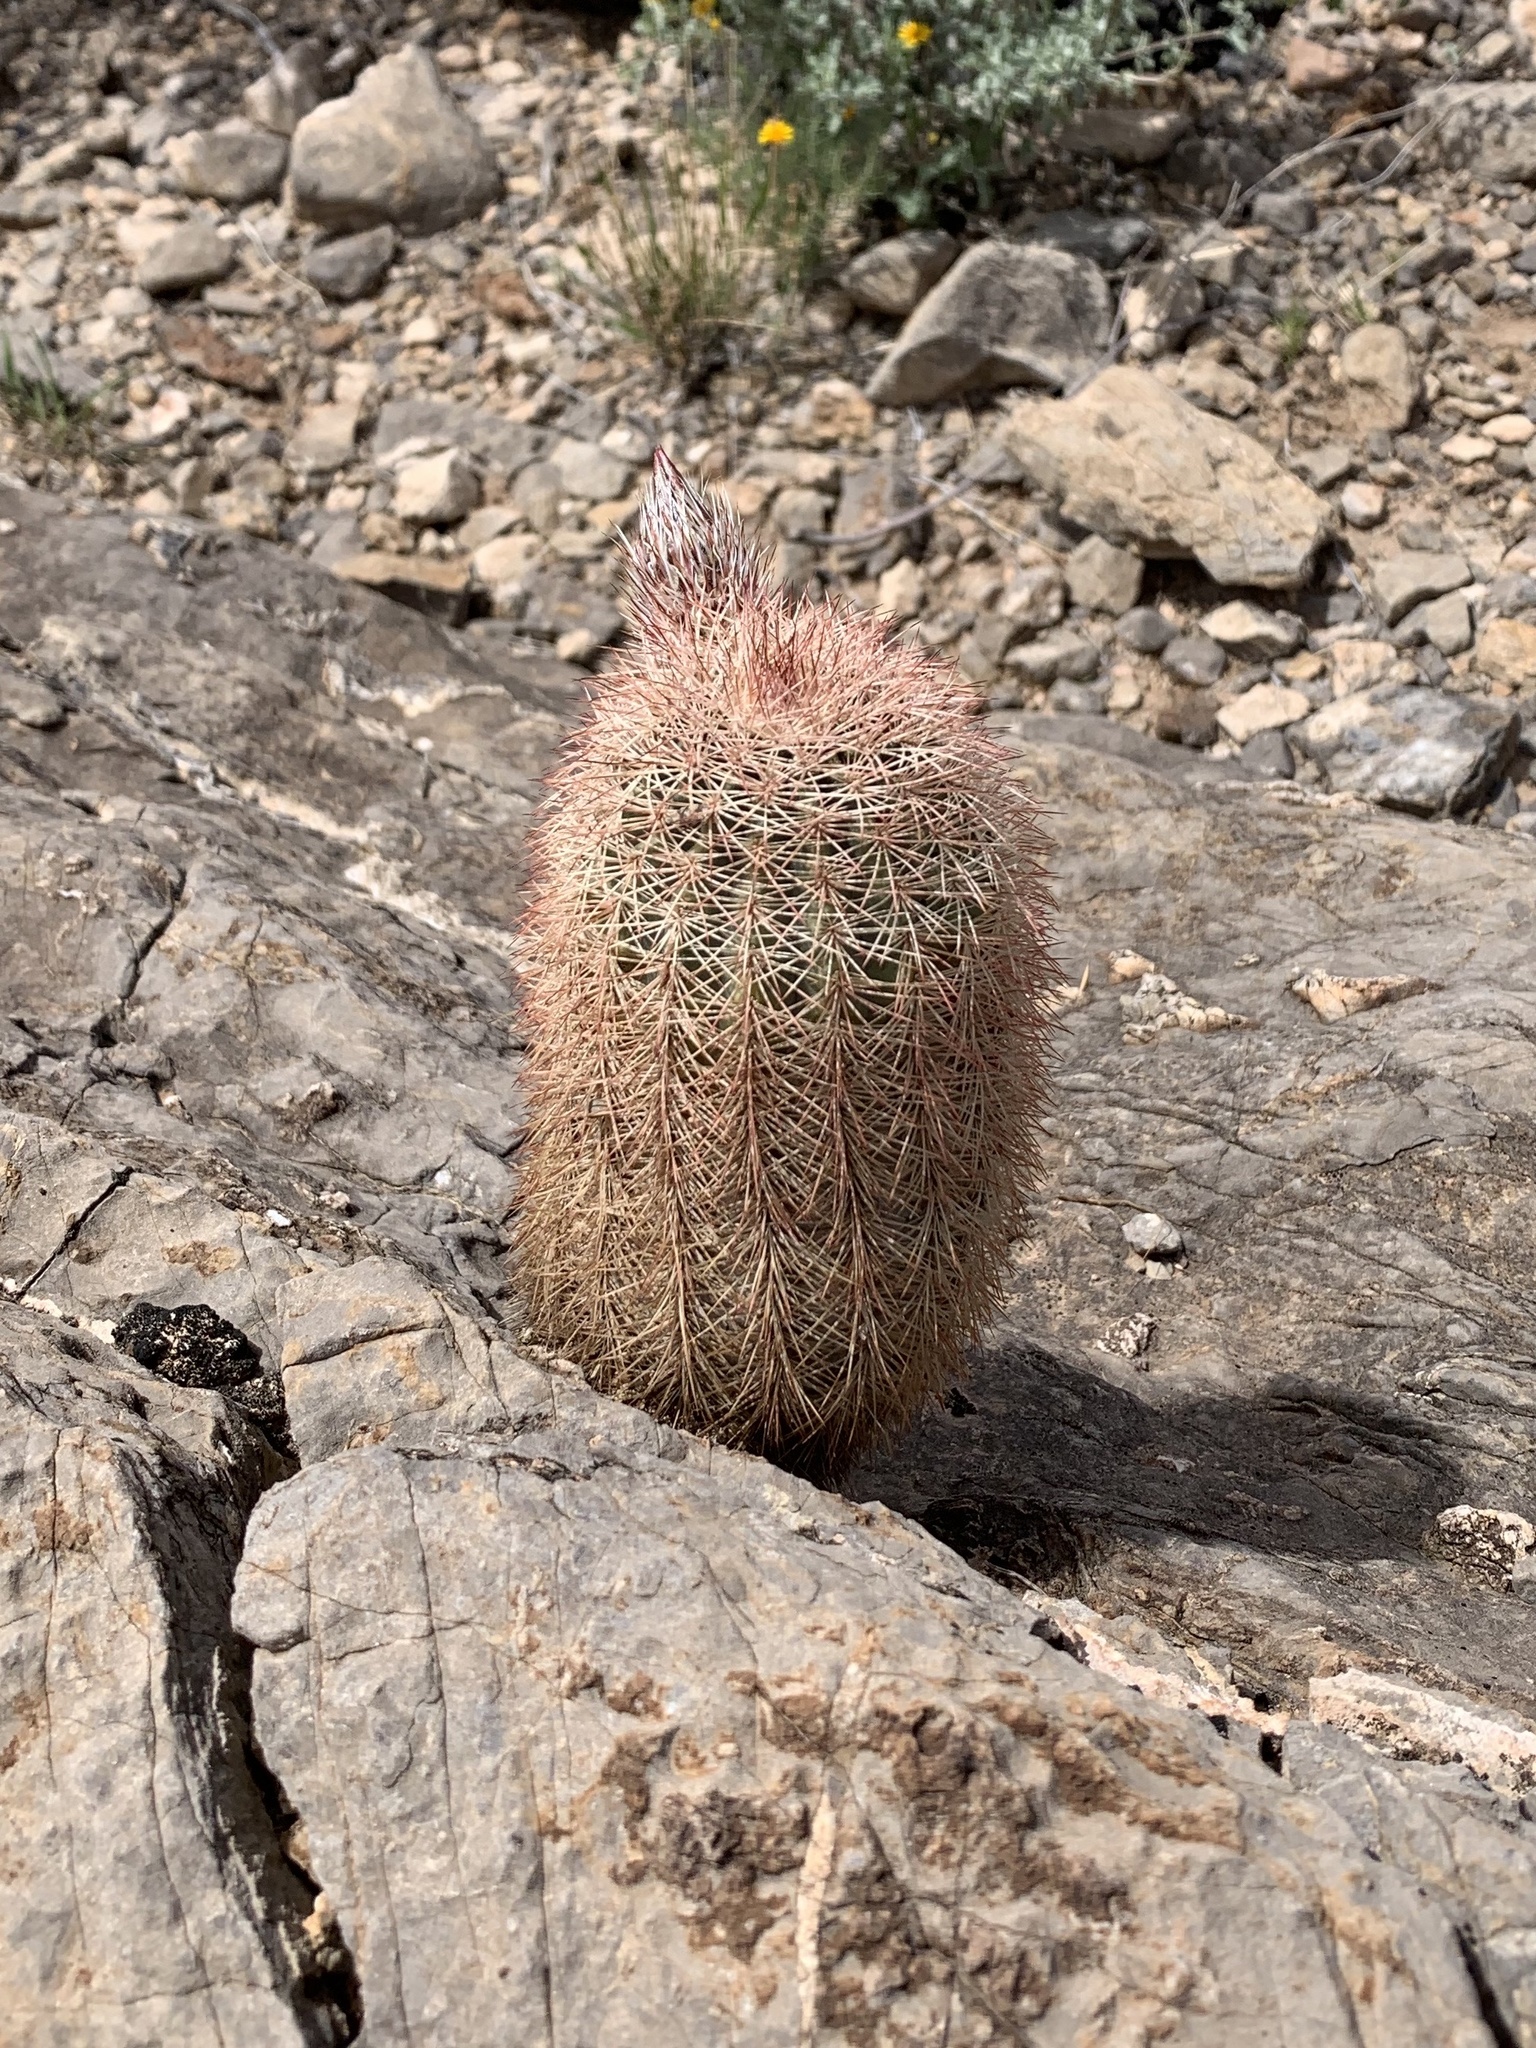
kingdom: Plantae
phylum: Tracheophyta
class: Magnoliopsida
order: Caryophyllales
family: Cactaceae
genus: Echinocereus
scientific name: Echinocereus dasyacanthus
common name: Spiny hedgehog cactus
